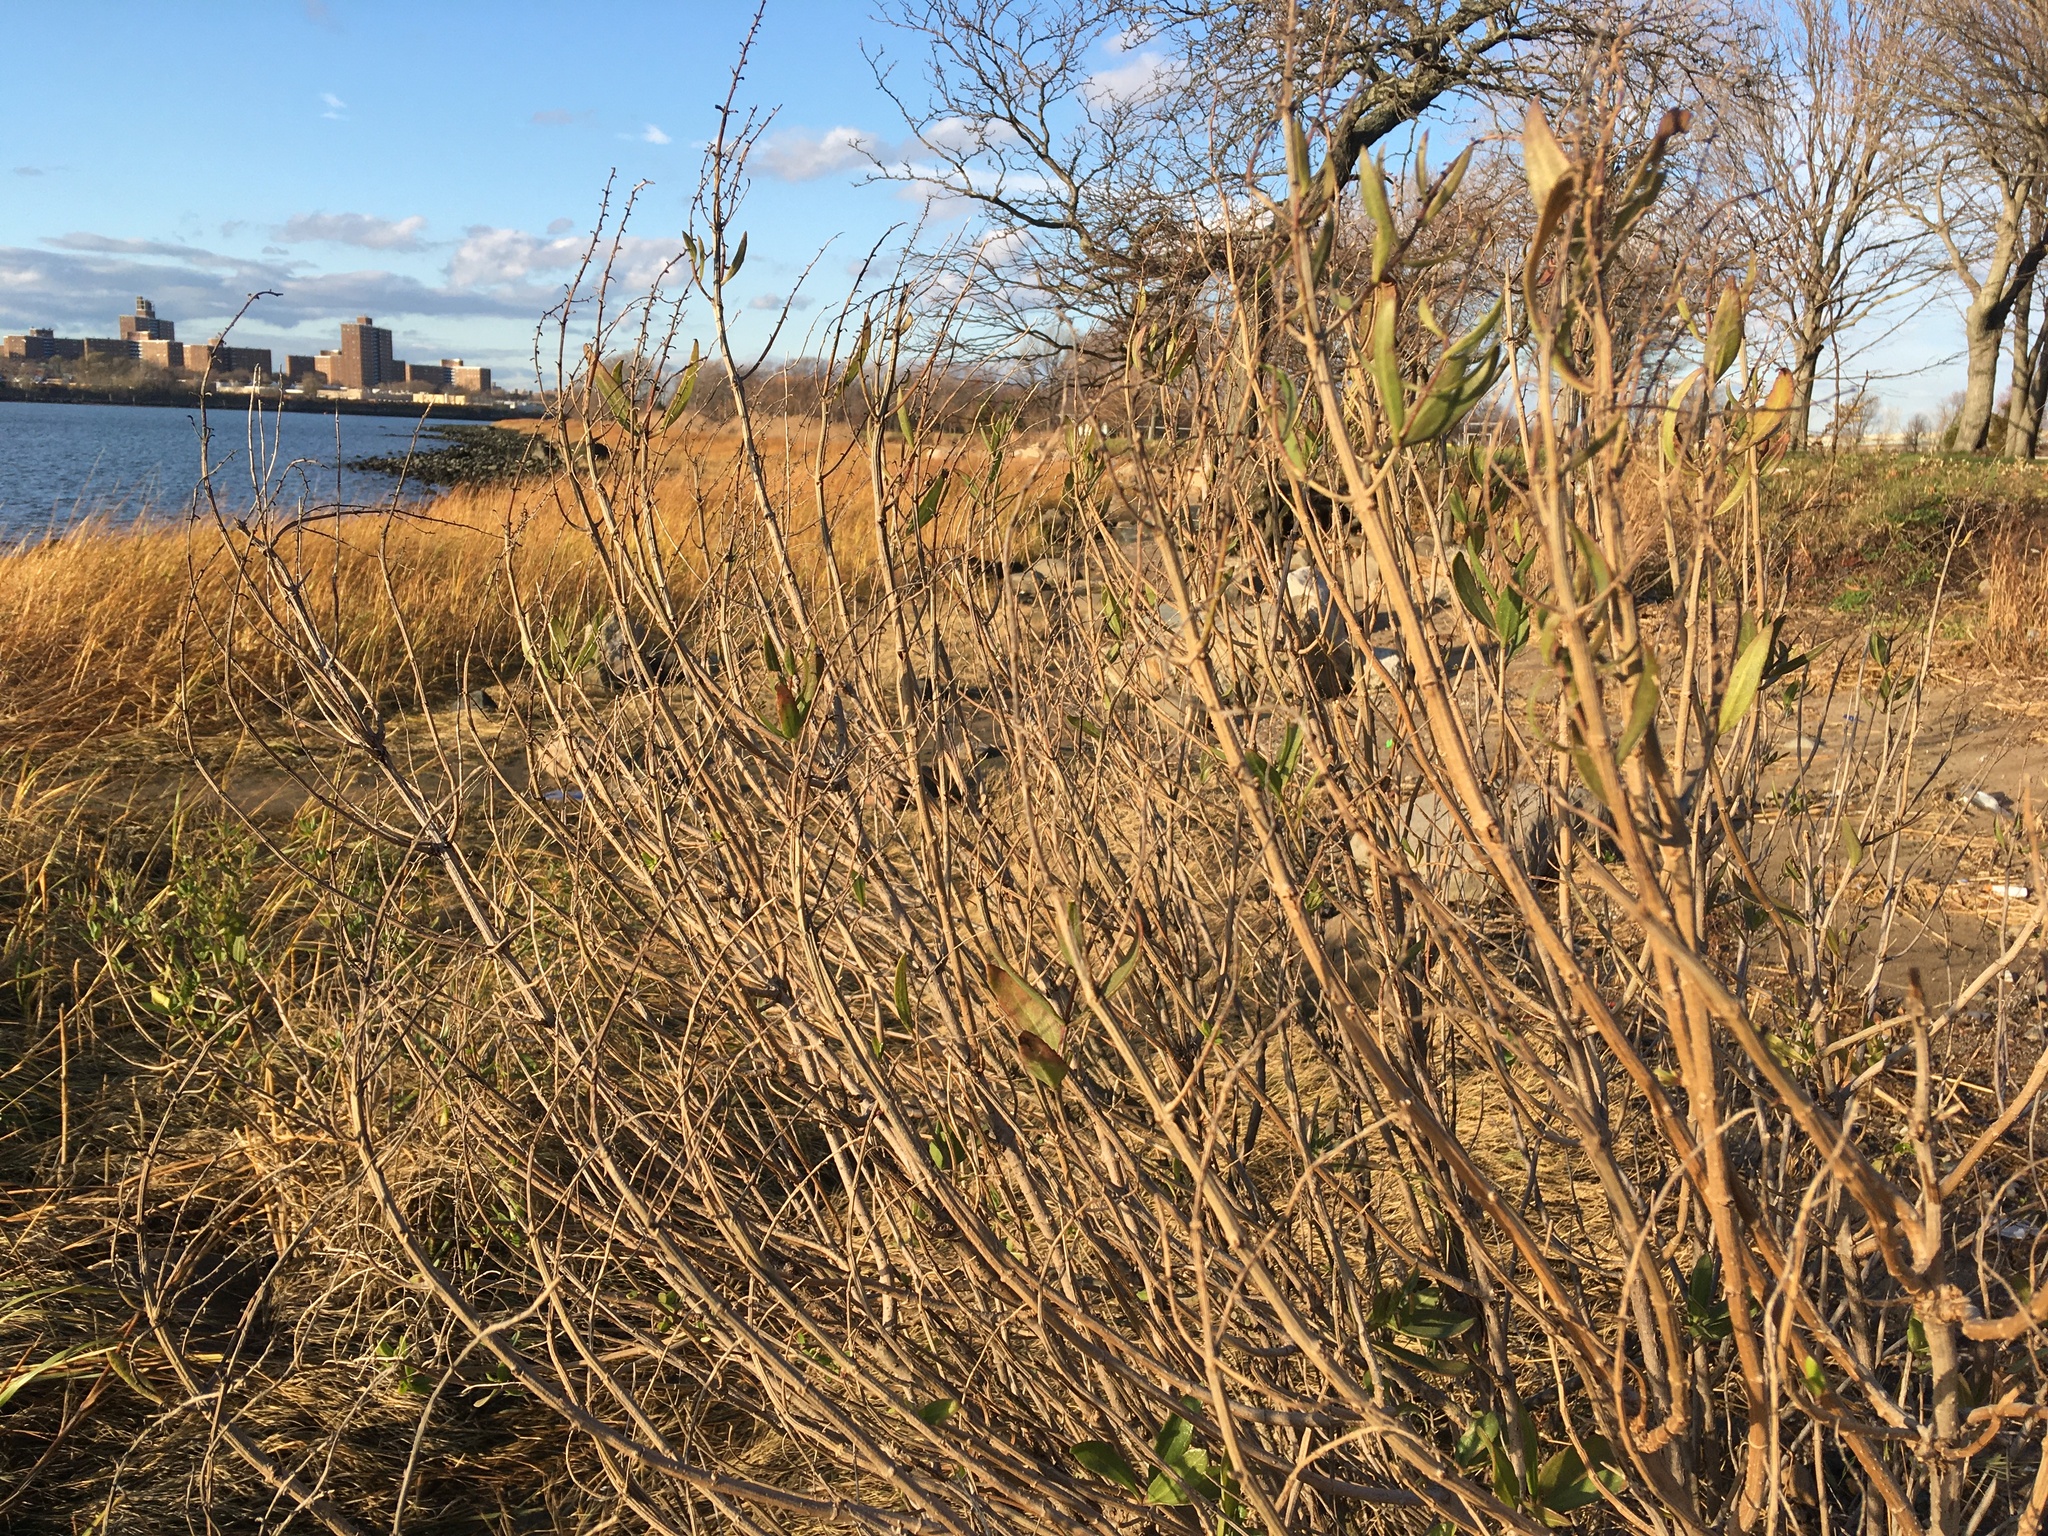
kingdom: Plantae
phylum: Tracheophyta
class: Magnoliopsida
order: Asterales
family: Asteraceae
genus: Iva
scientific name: Iva frutescens
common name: Big-leaved marsh-elder
